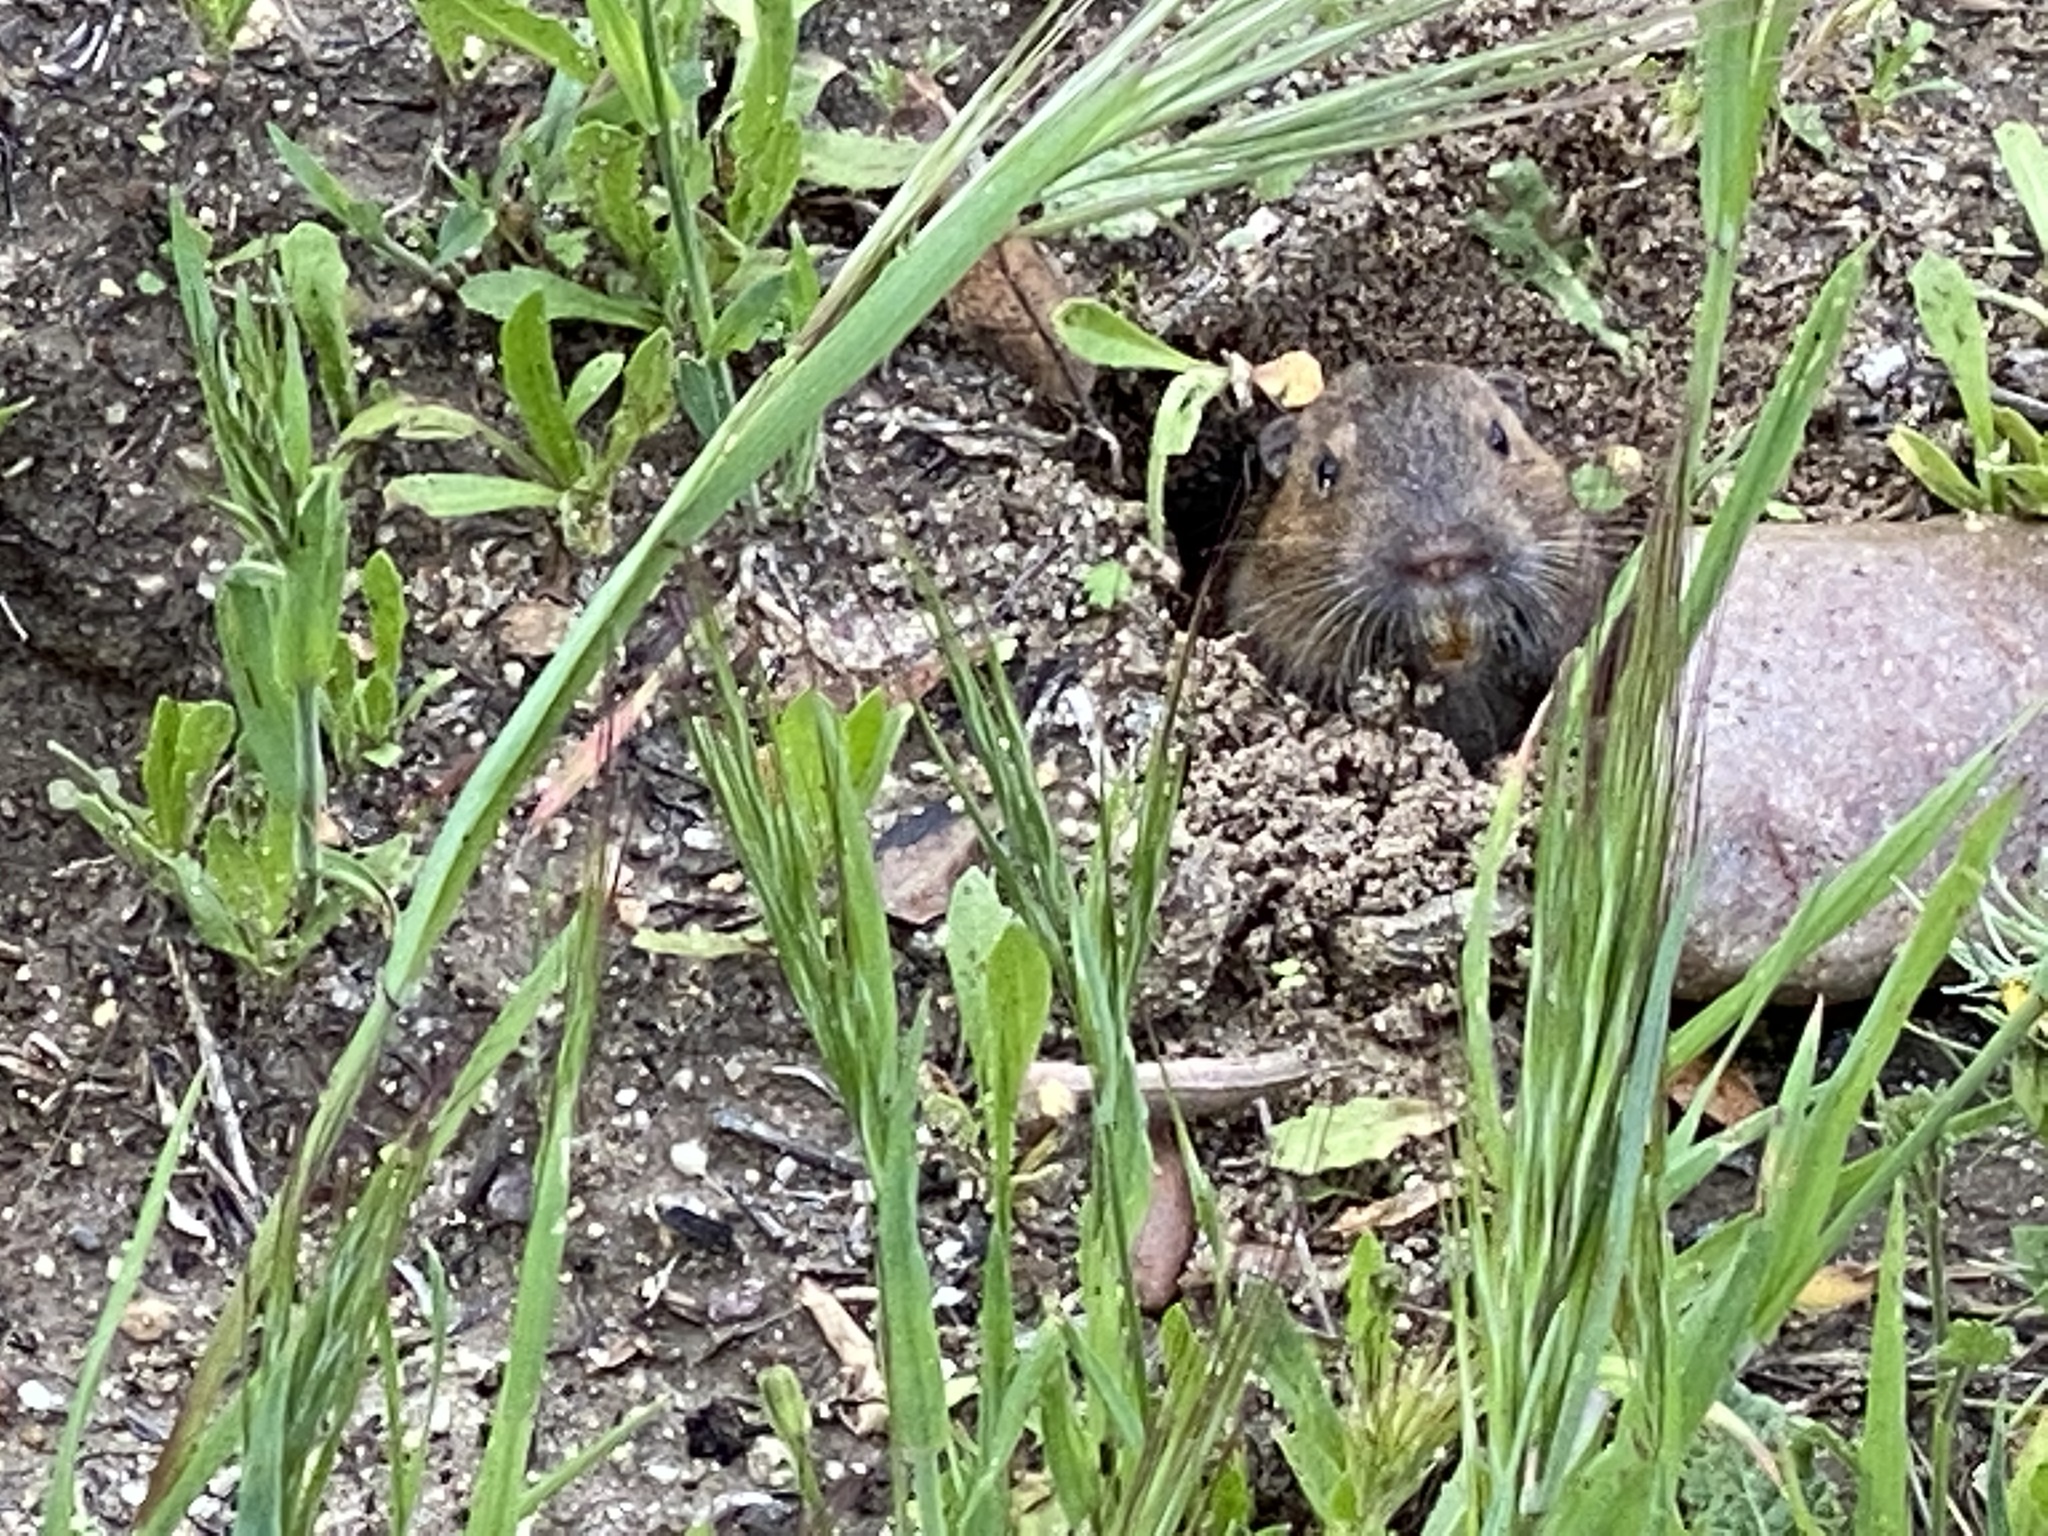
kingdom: Animalia
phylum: Chordata
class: Mammalia
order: Rodentia
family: Geomyidae
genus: Thomomys
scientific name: Thomomys bottae
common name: Botta's pocket gopher
